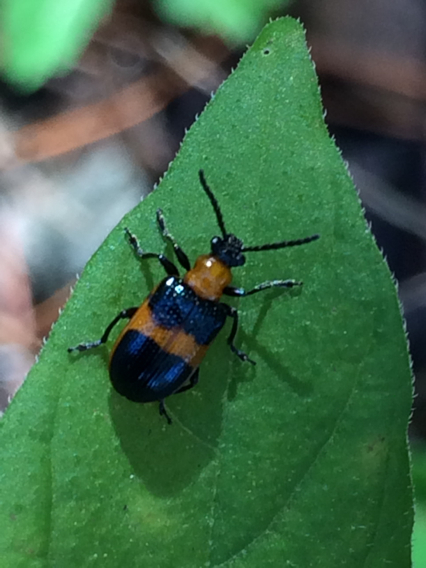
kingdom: Animalia
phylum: Arthropoda
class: Insecta
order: Coleoptera
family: Chrysomelidae
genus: Lema
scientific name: Lema solani
